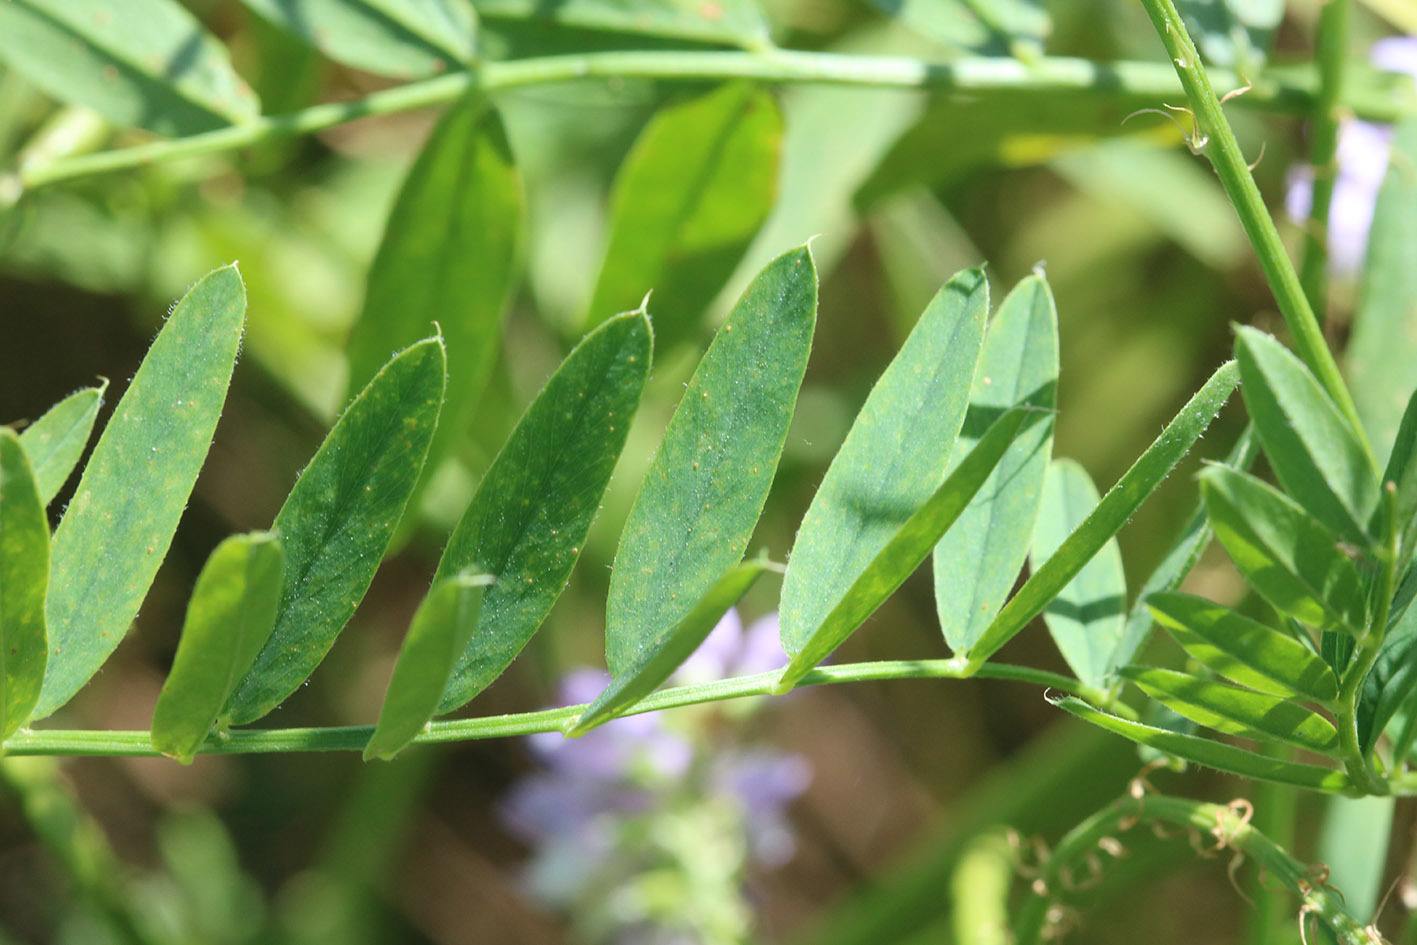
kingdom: Plantae
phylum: Tracheophyta
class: Magnoliopsida
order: Fabales
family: Fabaceae
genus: Galega
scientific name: Galega officinalis
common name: Goat's-rue
